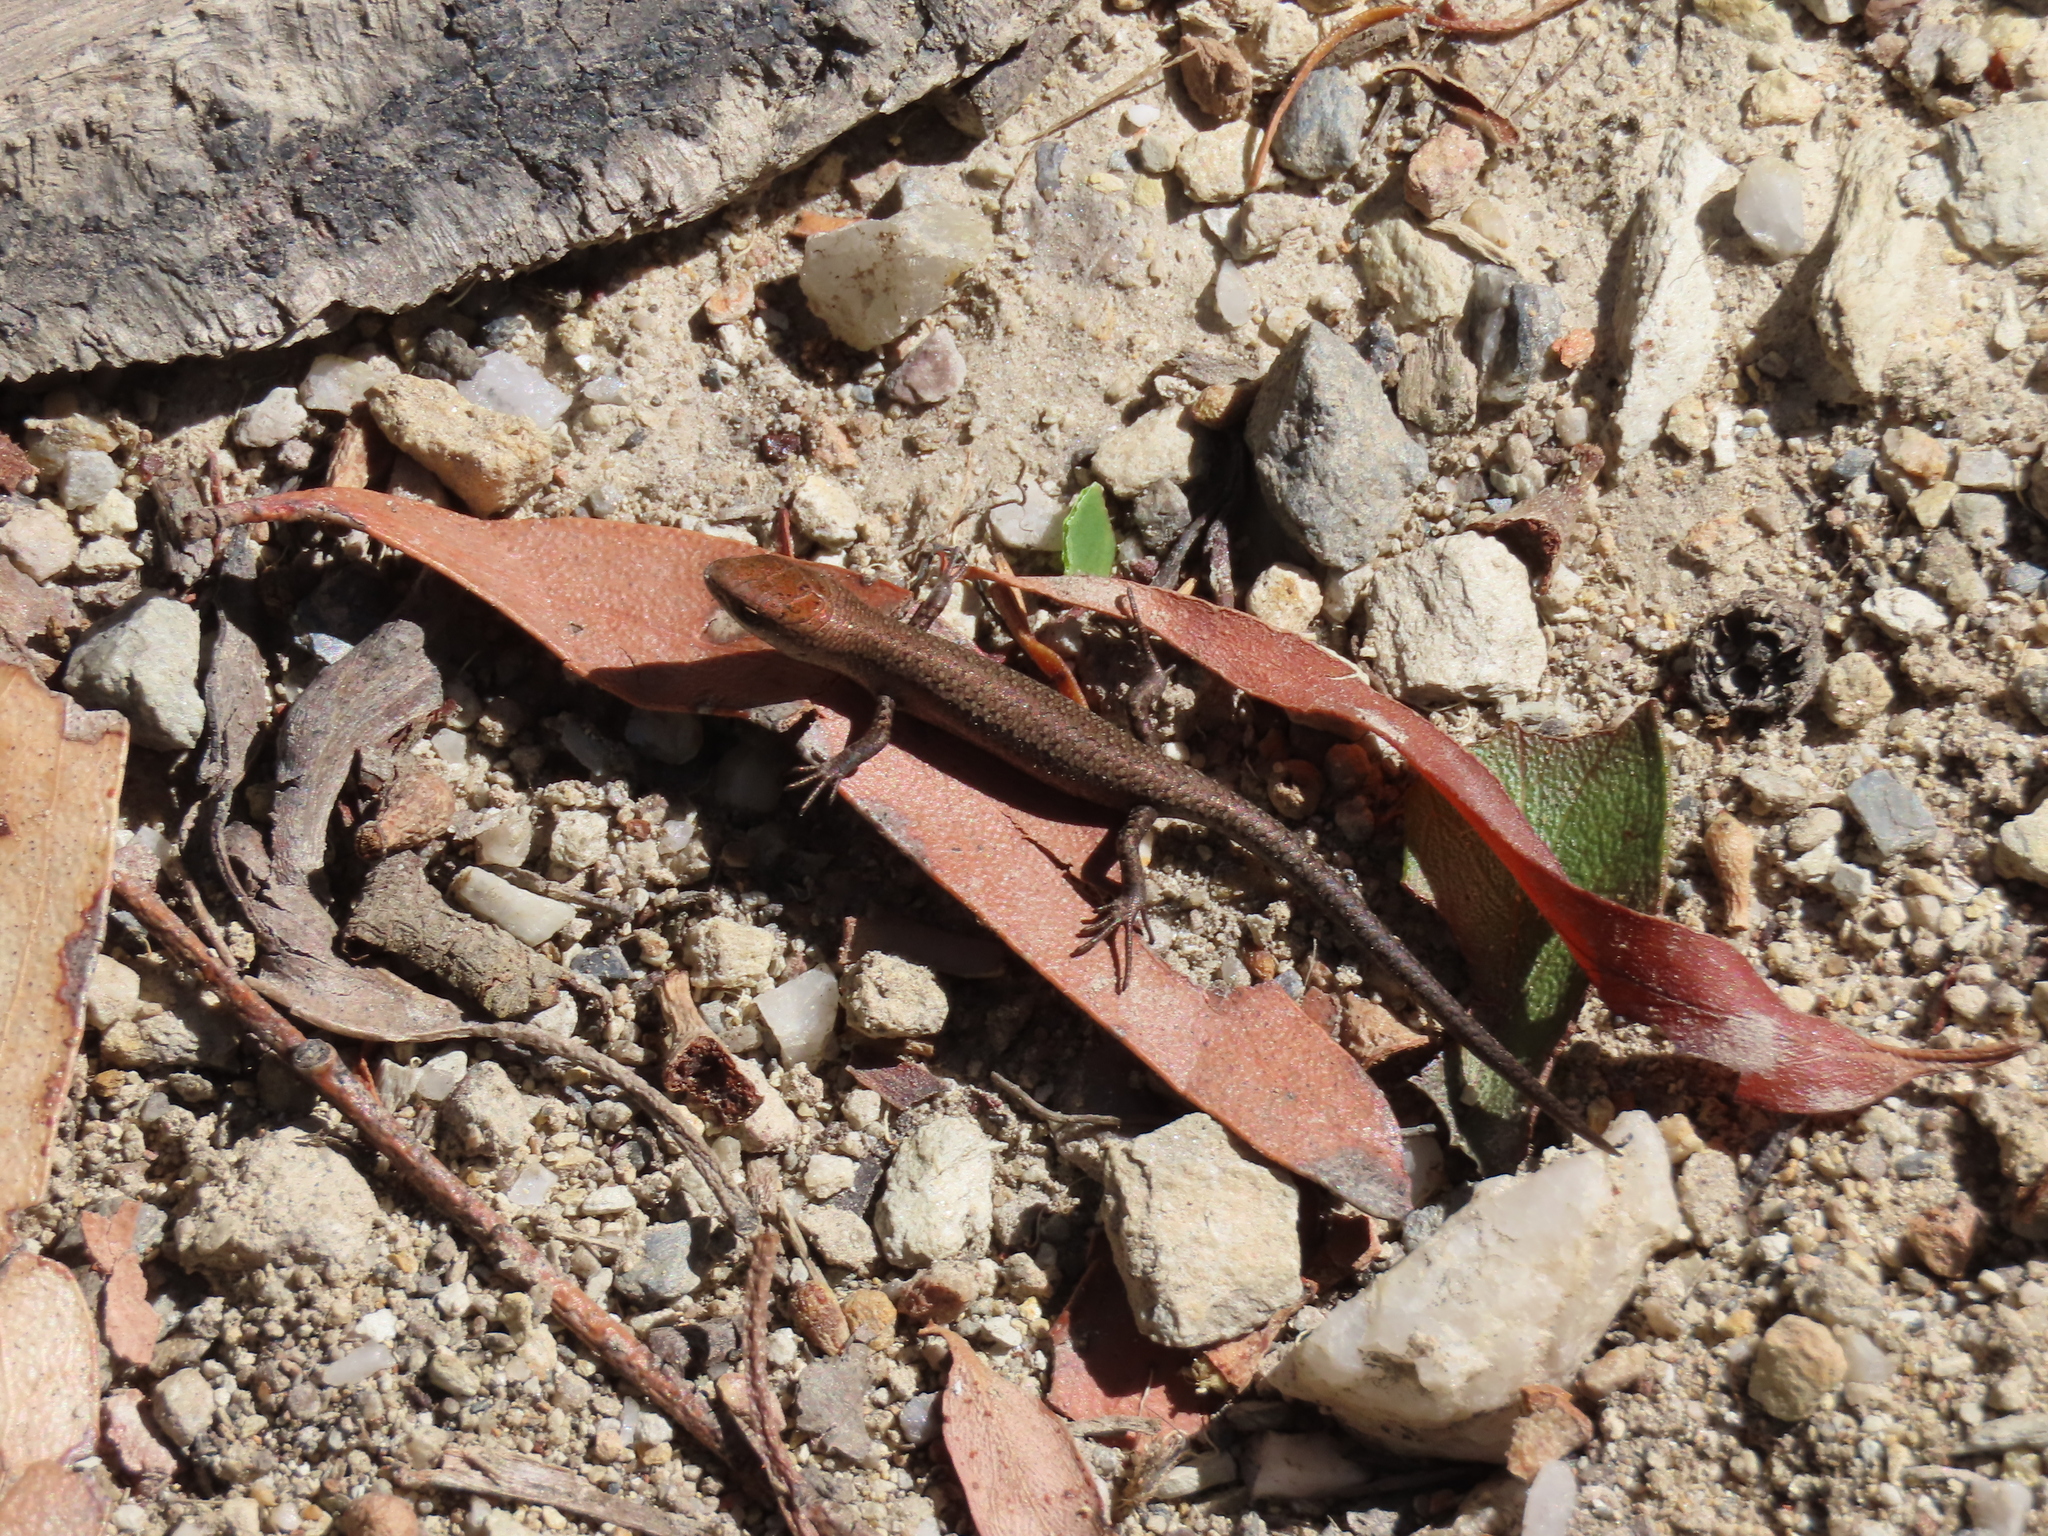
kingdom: Animalia
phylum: Chordata
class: Squamata
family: Scincidae
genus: Lampropholis
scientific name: Lampropholis guichenoti
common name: Garden skink
